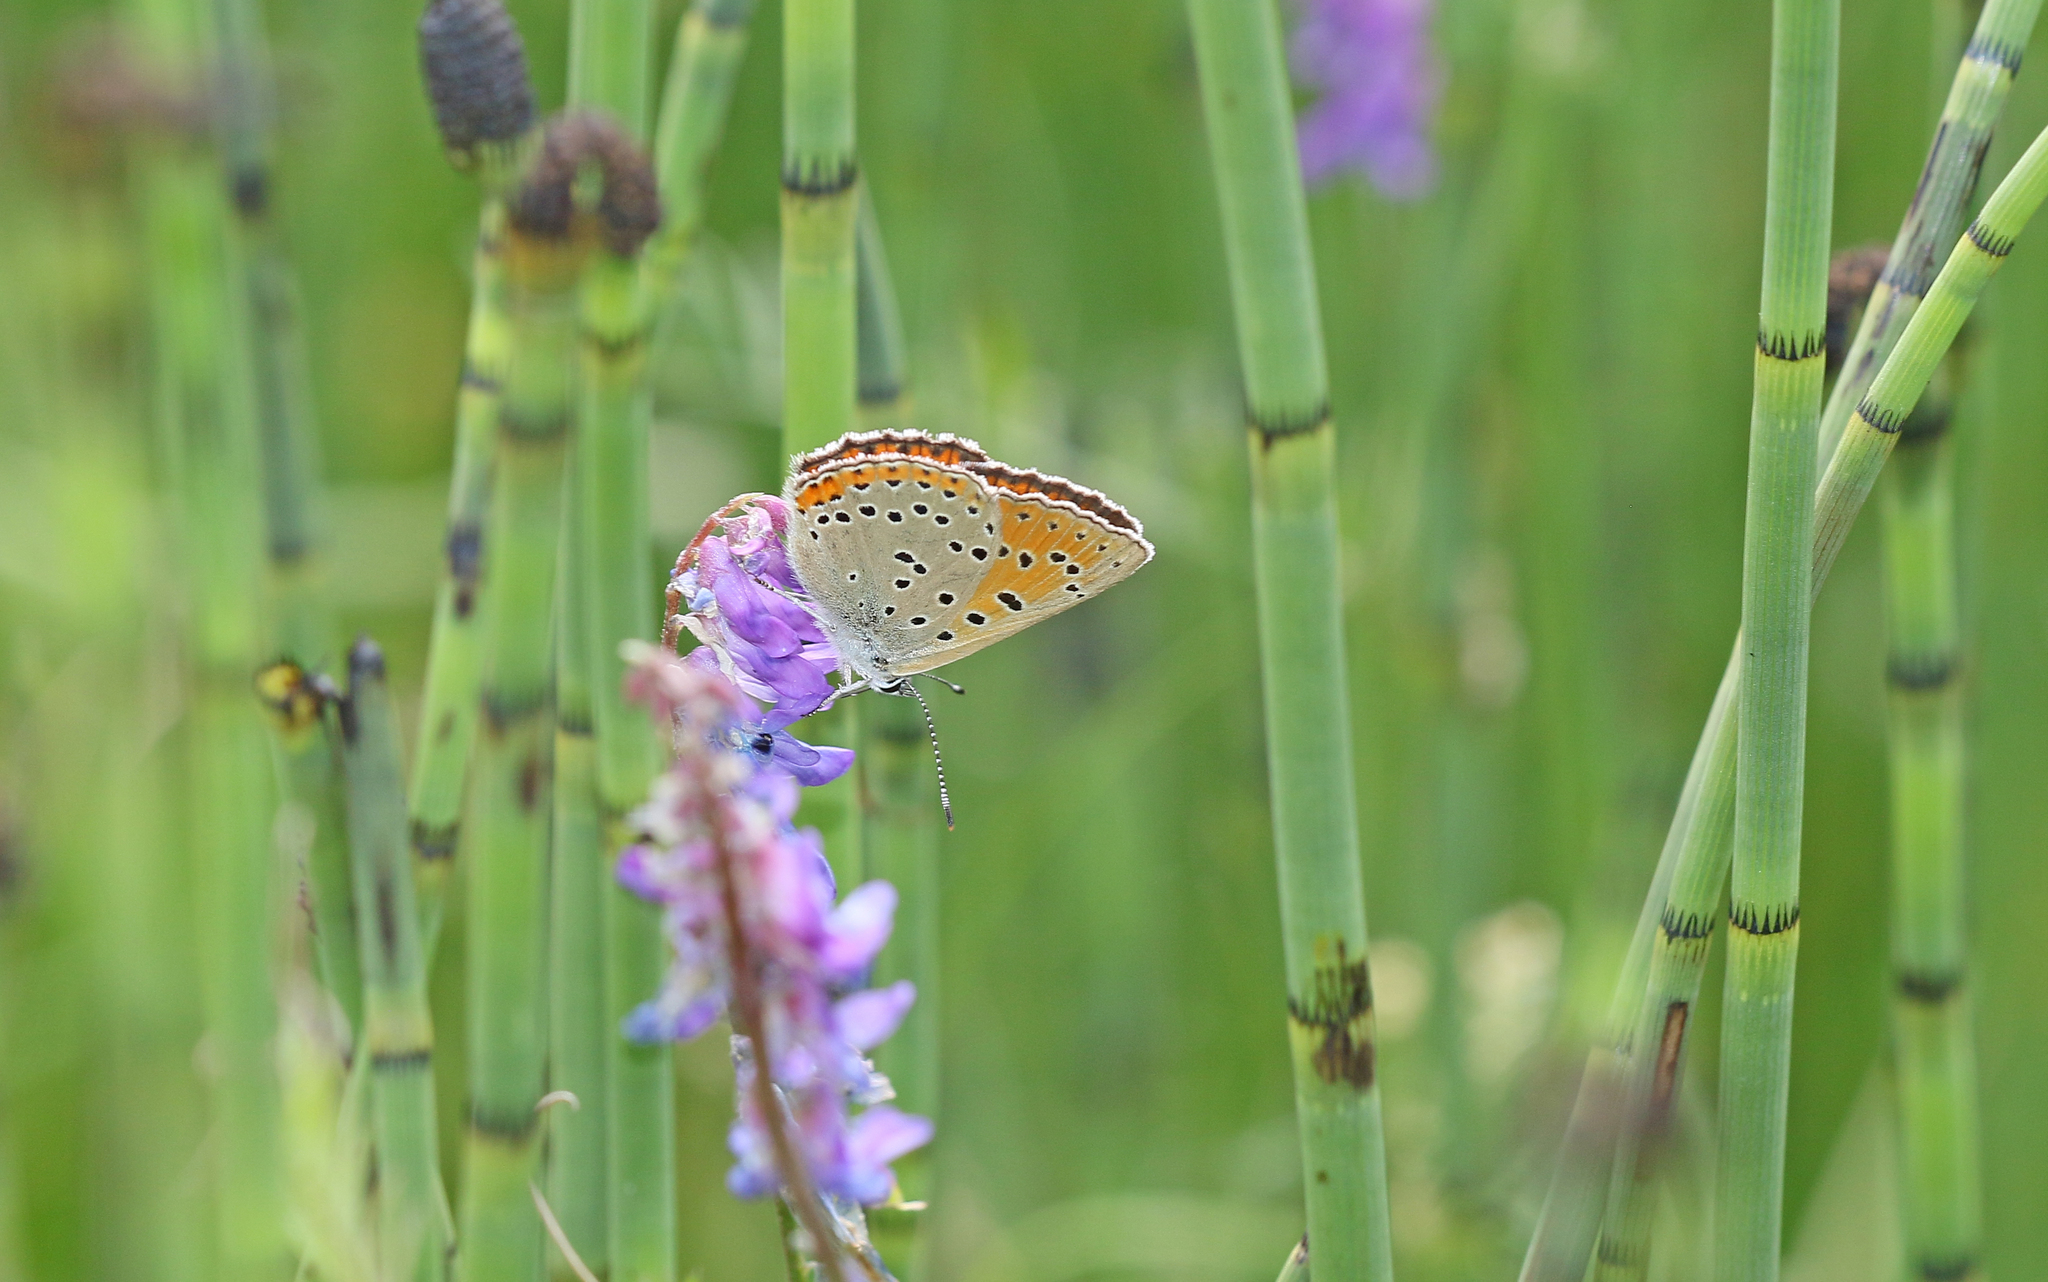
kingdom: Animalia
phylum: Arthropoda
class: Insecta
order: Lepidoptera
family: Lycaenidae
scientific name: Lycaenidae
